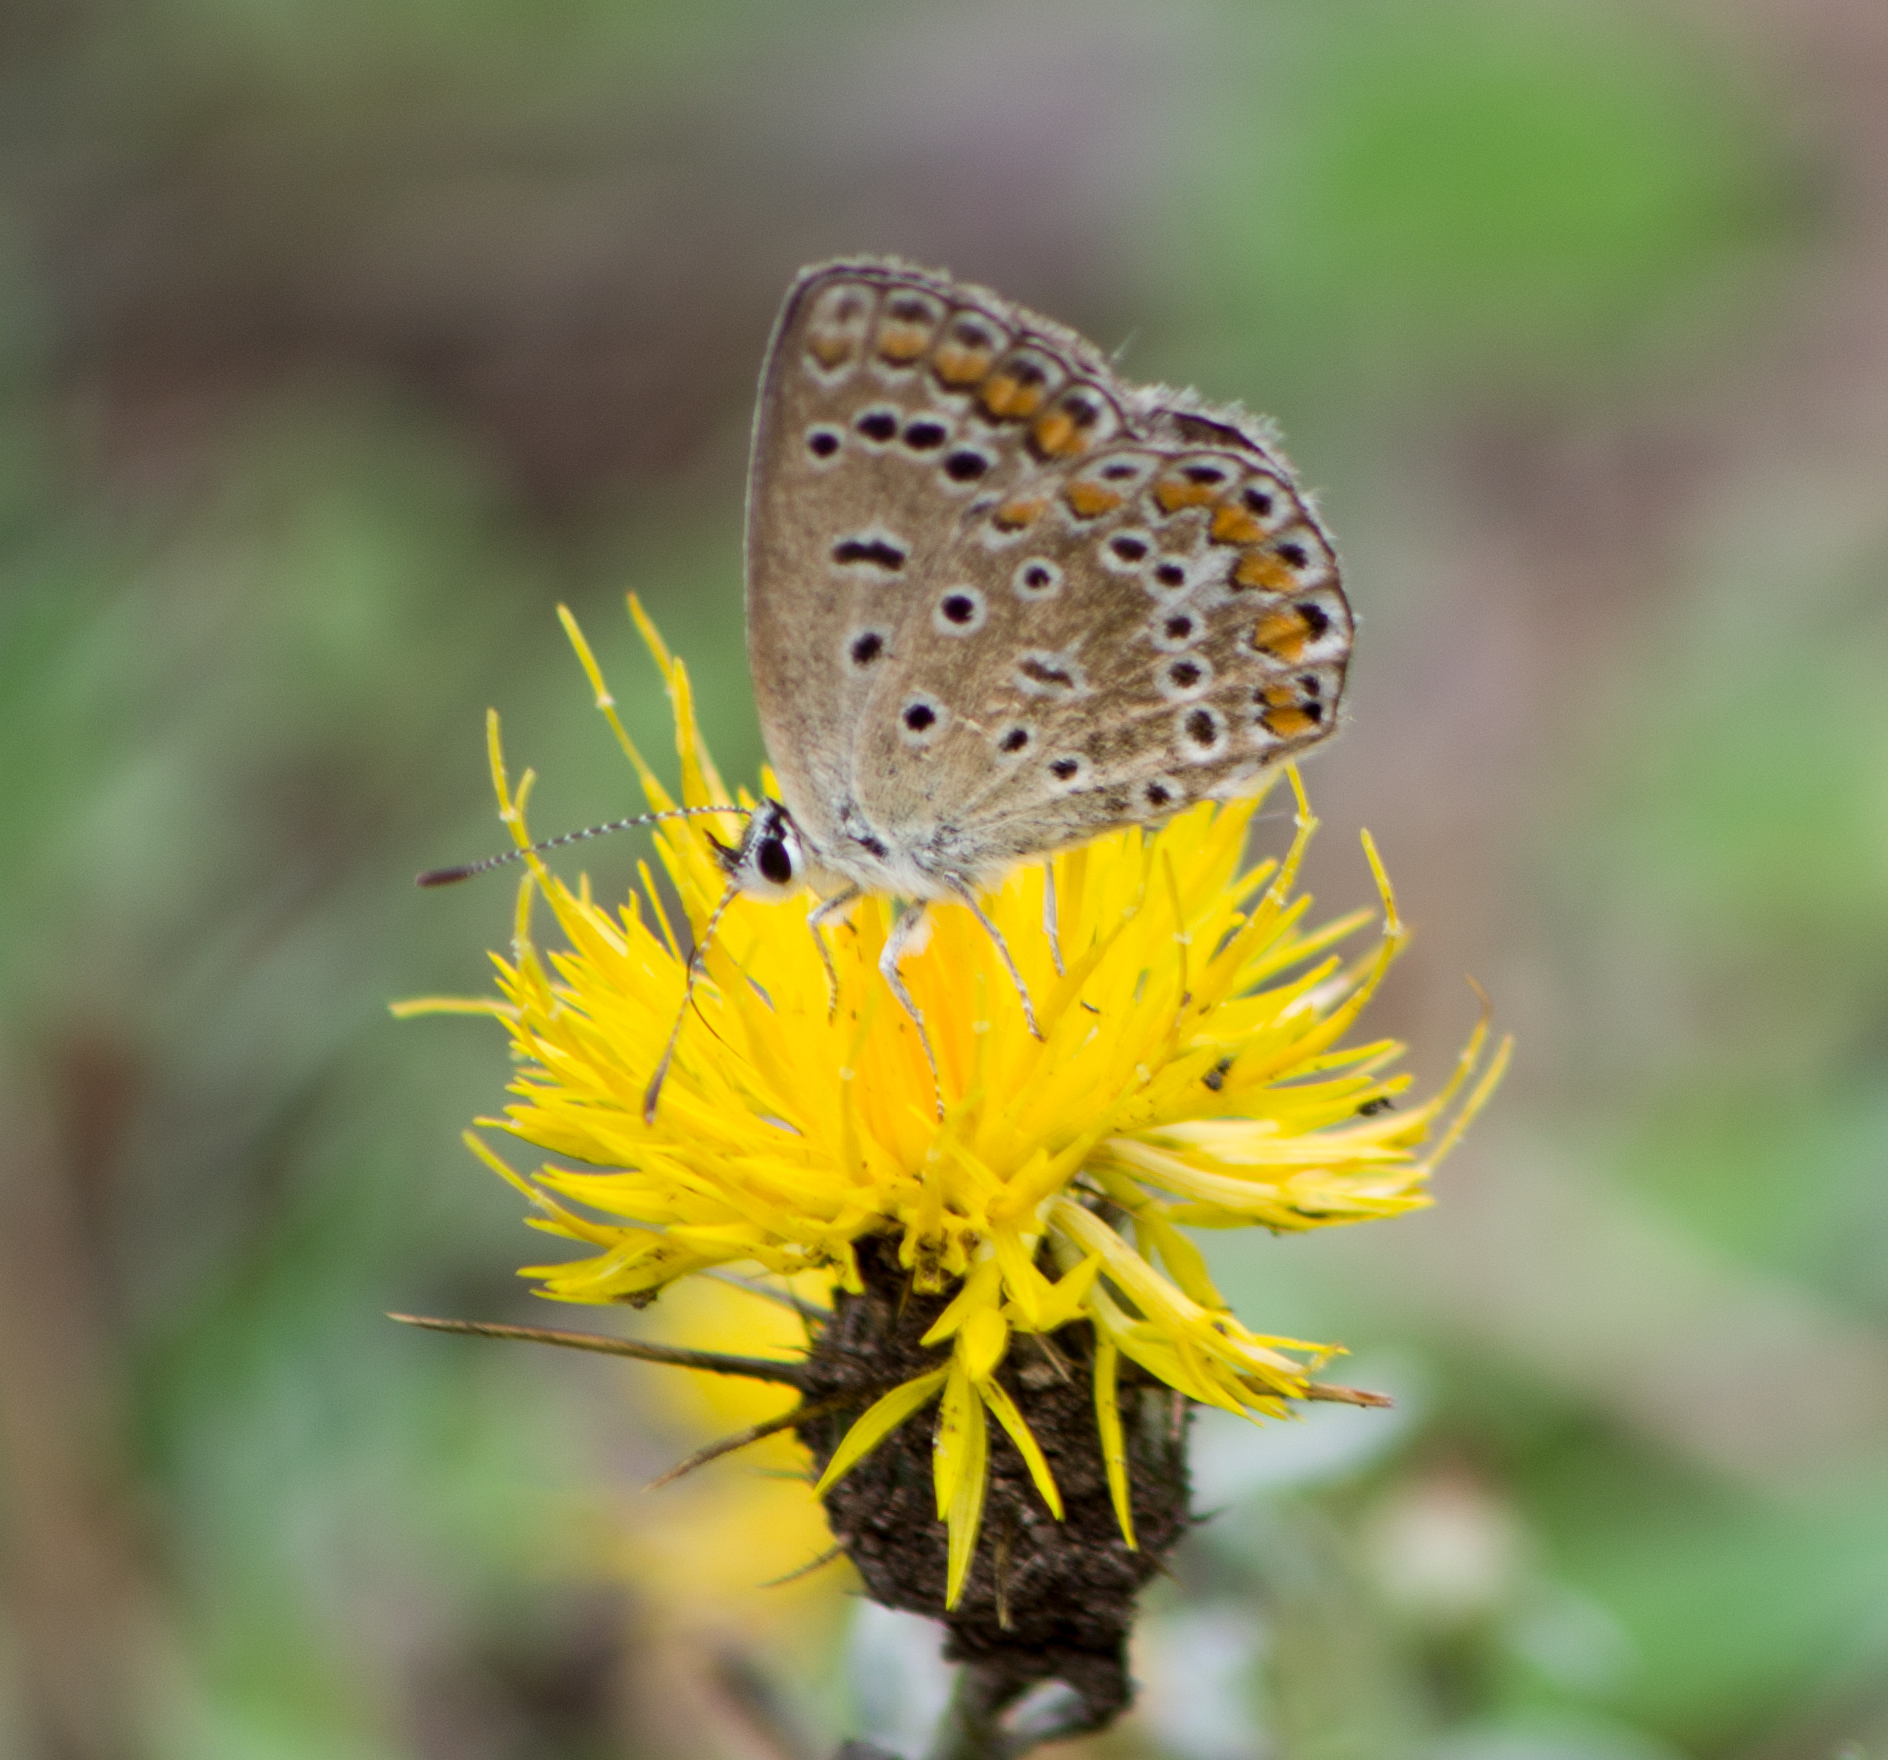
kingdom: Animalia
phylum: Arthropoda
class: Insecta
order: Lepidoptera
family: Lycaenidae
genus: Polyommatus
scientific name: Polyommatus icarus
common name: Common blue
